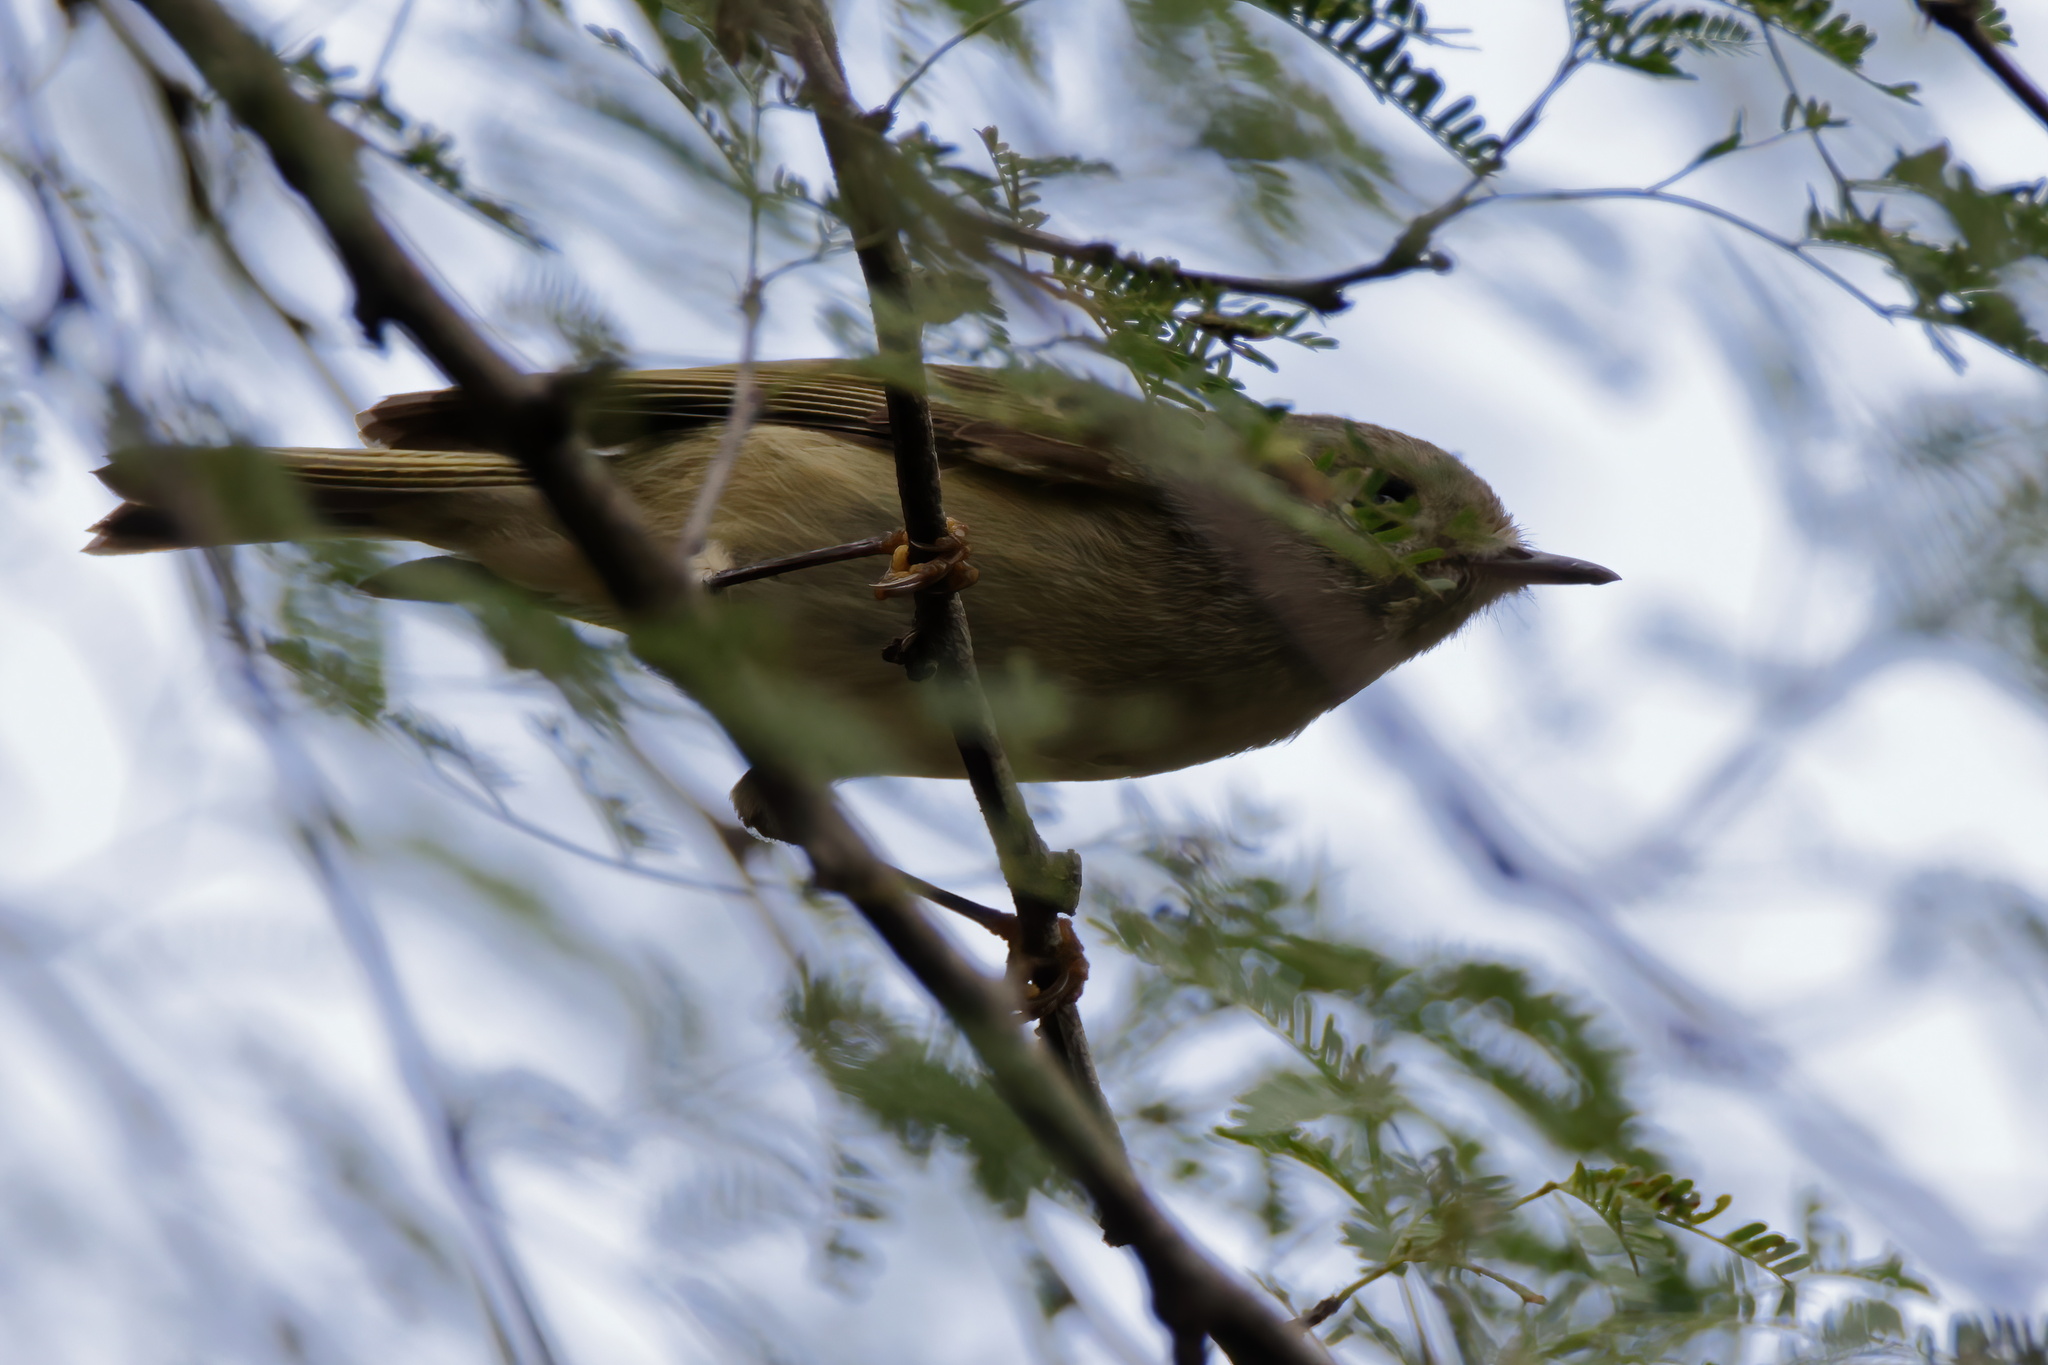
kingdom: Animalia
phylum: Chordata
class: Aves
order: Passeriformes
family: Regulidae
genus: Regulus
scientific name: Regulus calendula
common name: Ruby-crowned kinglet
